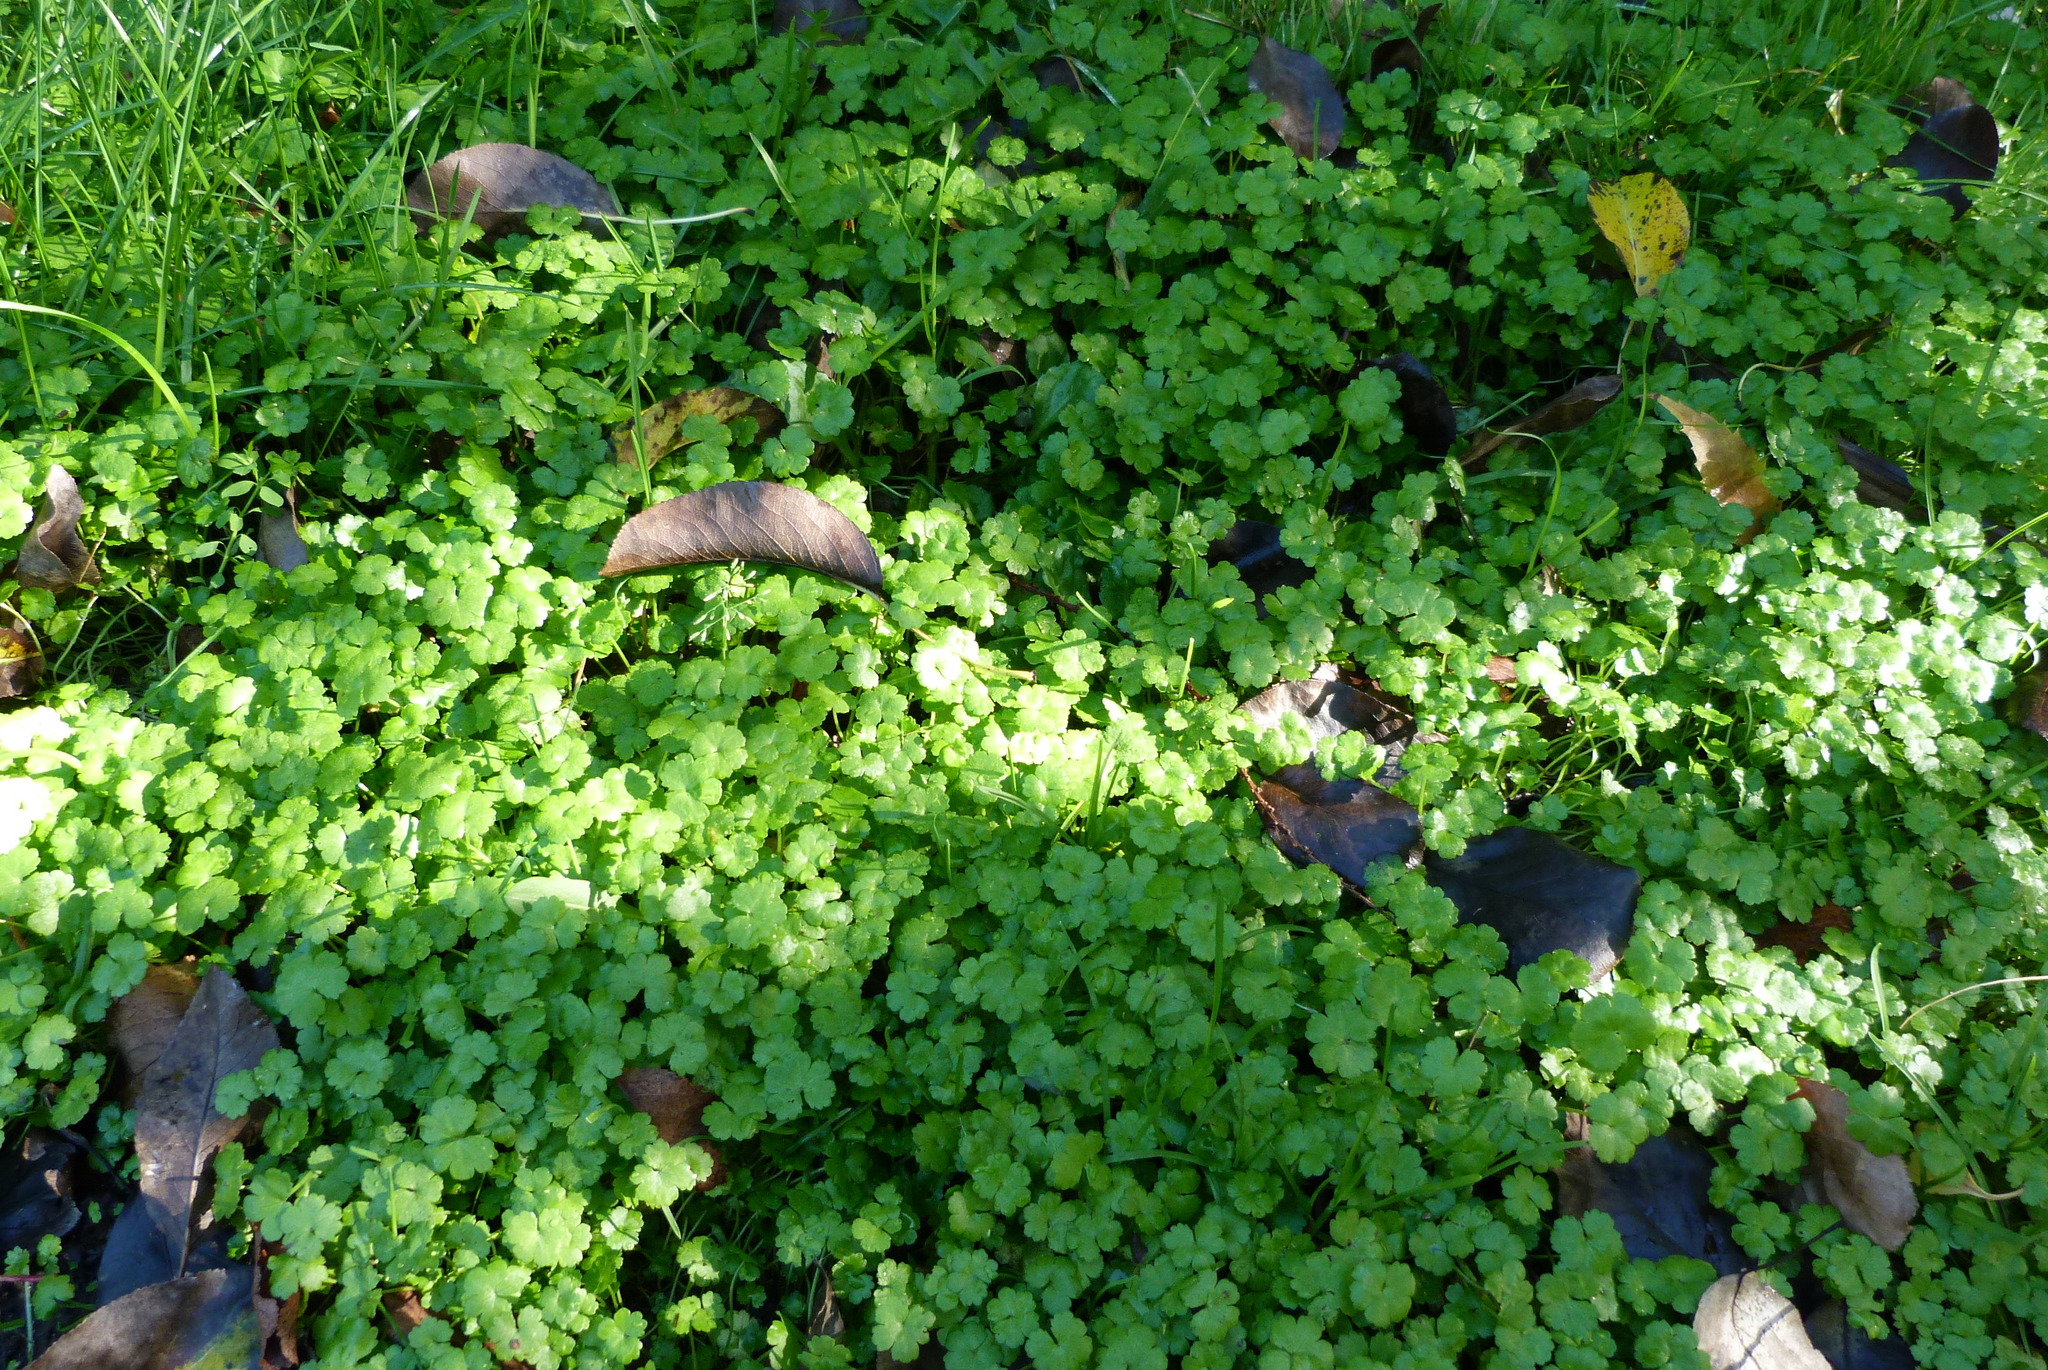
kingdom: Plantae
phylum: Tracheophyta
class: Magnoliopsida
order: Apiales
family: Araliaceae
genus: Hydrocotyle
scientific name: Hydrocotyle heteromeria
